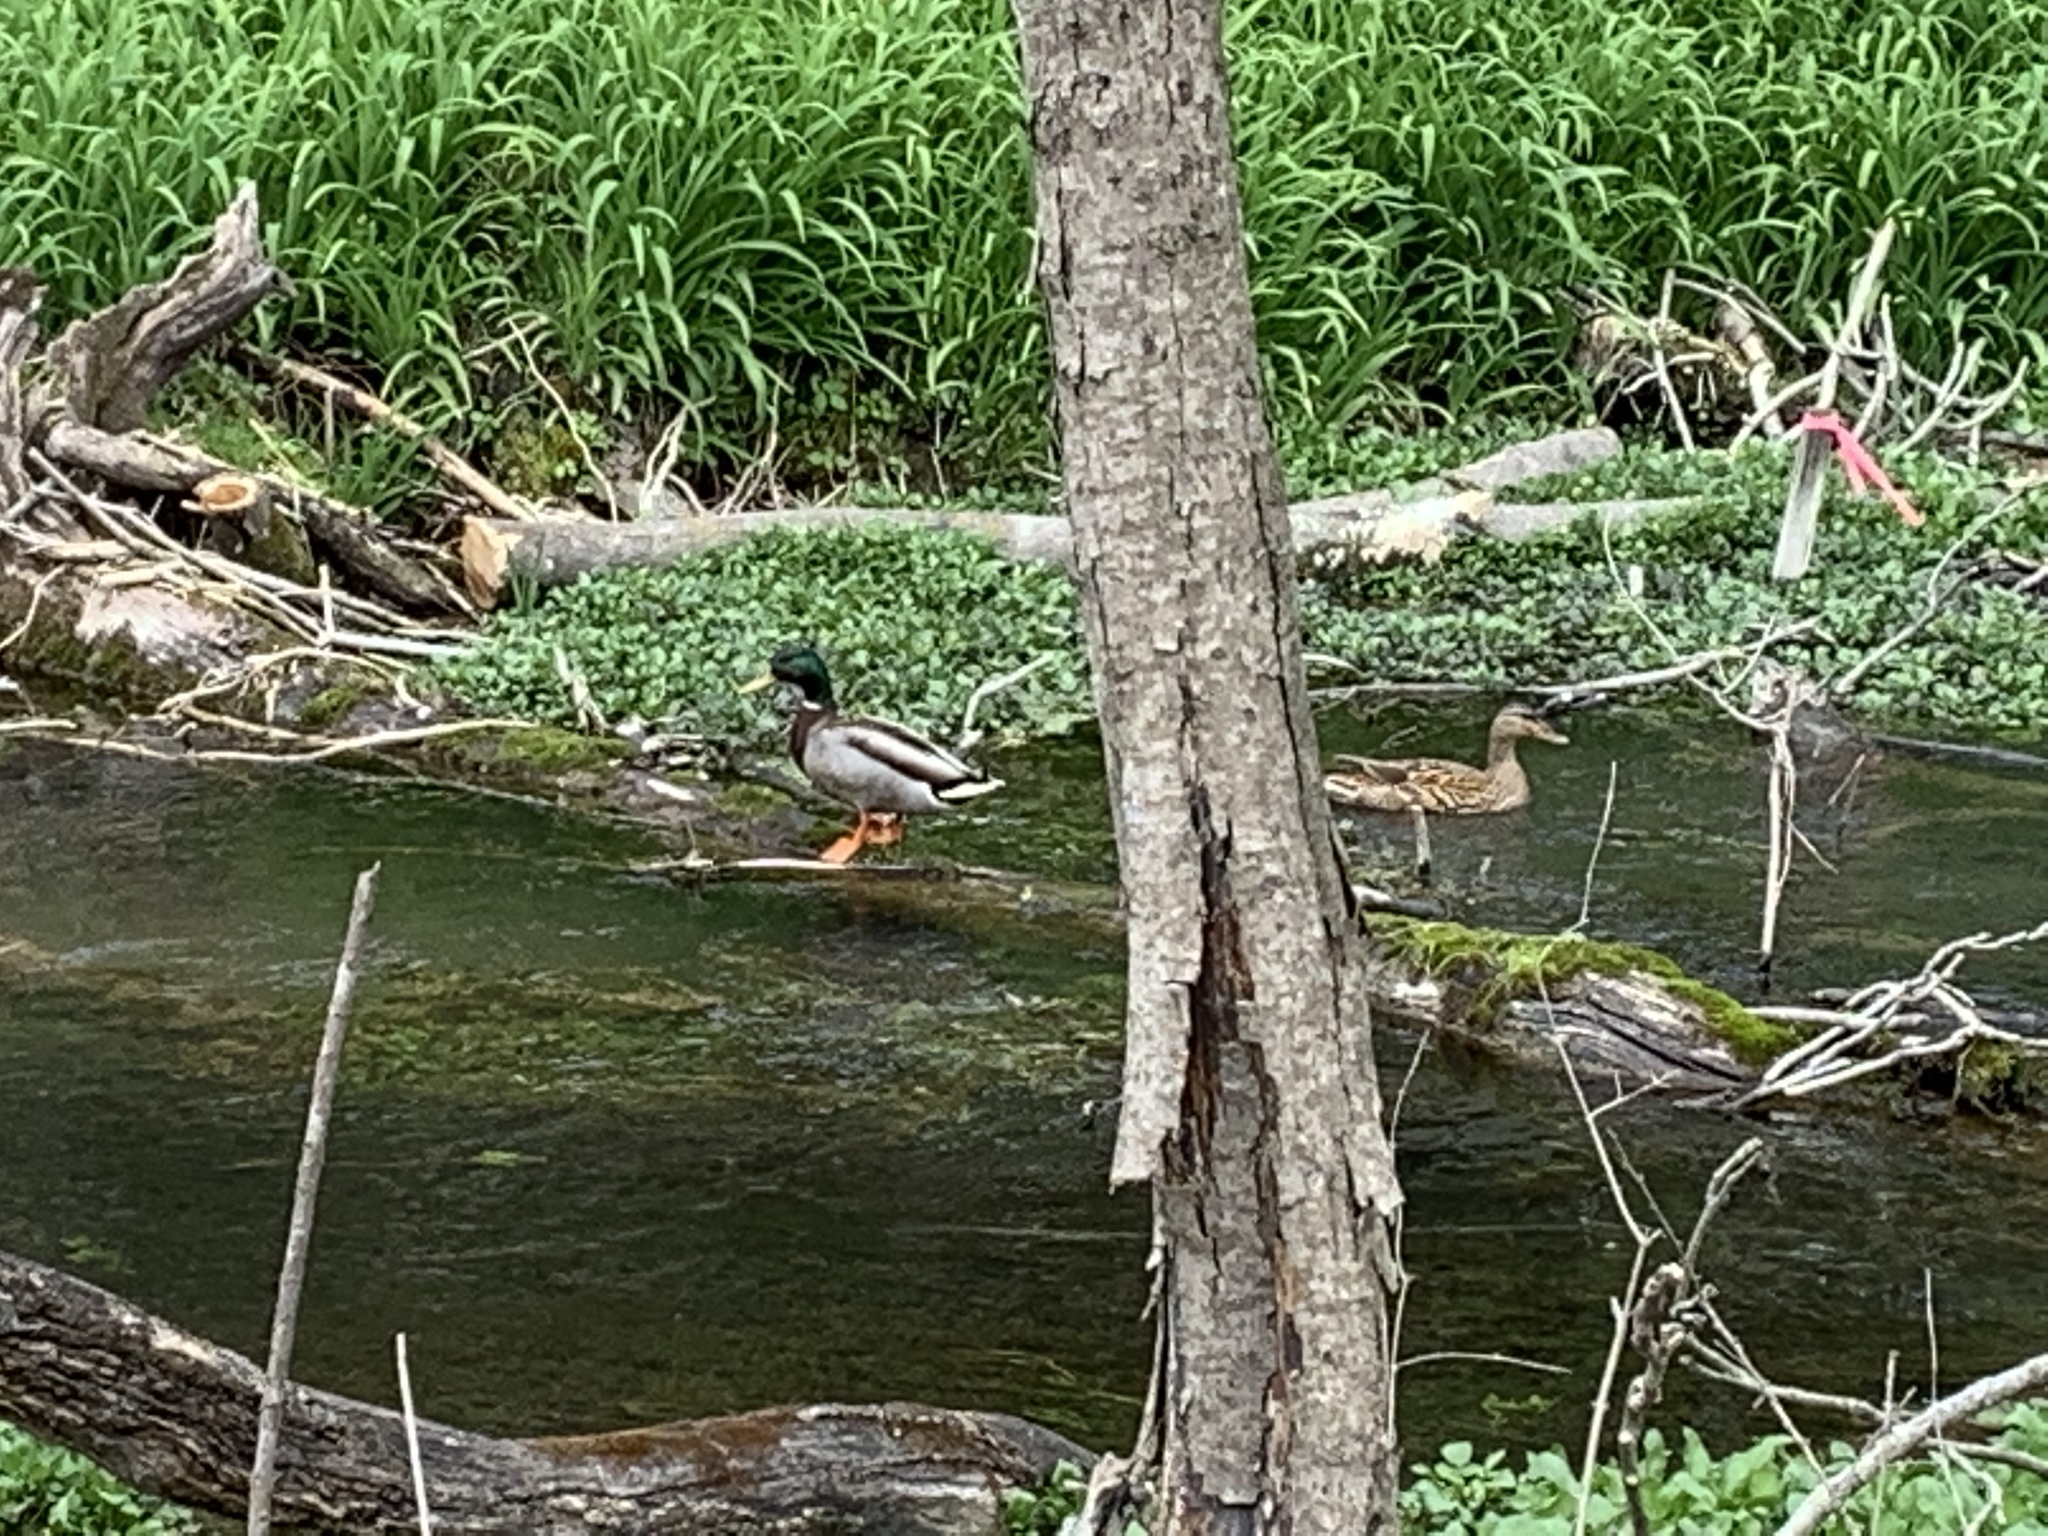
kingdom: Animalia
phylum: Chordata
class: Aves
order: Anseriformes
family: Anatidae
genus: Anas
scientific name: Anas platyrhynchos
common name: Mallard
